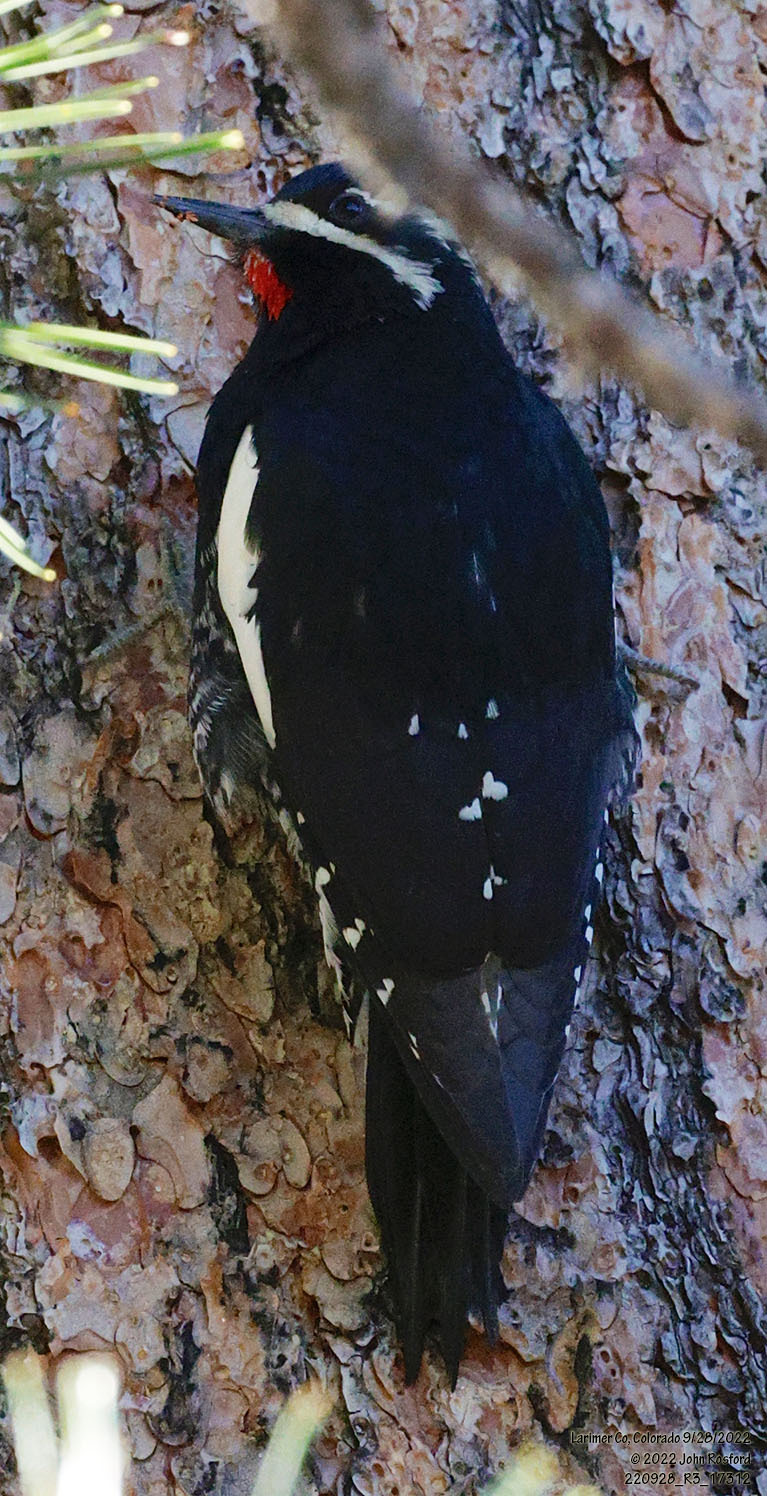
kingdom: Animalia
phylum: Chordata
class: Aves
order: Piciformes
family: Picidae
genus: Sphyrapicus
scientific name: Sphyrapicus thyroideus
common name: Williamson's sapsucker
